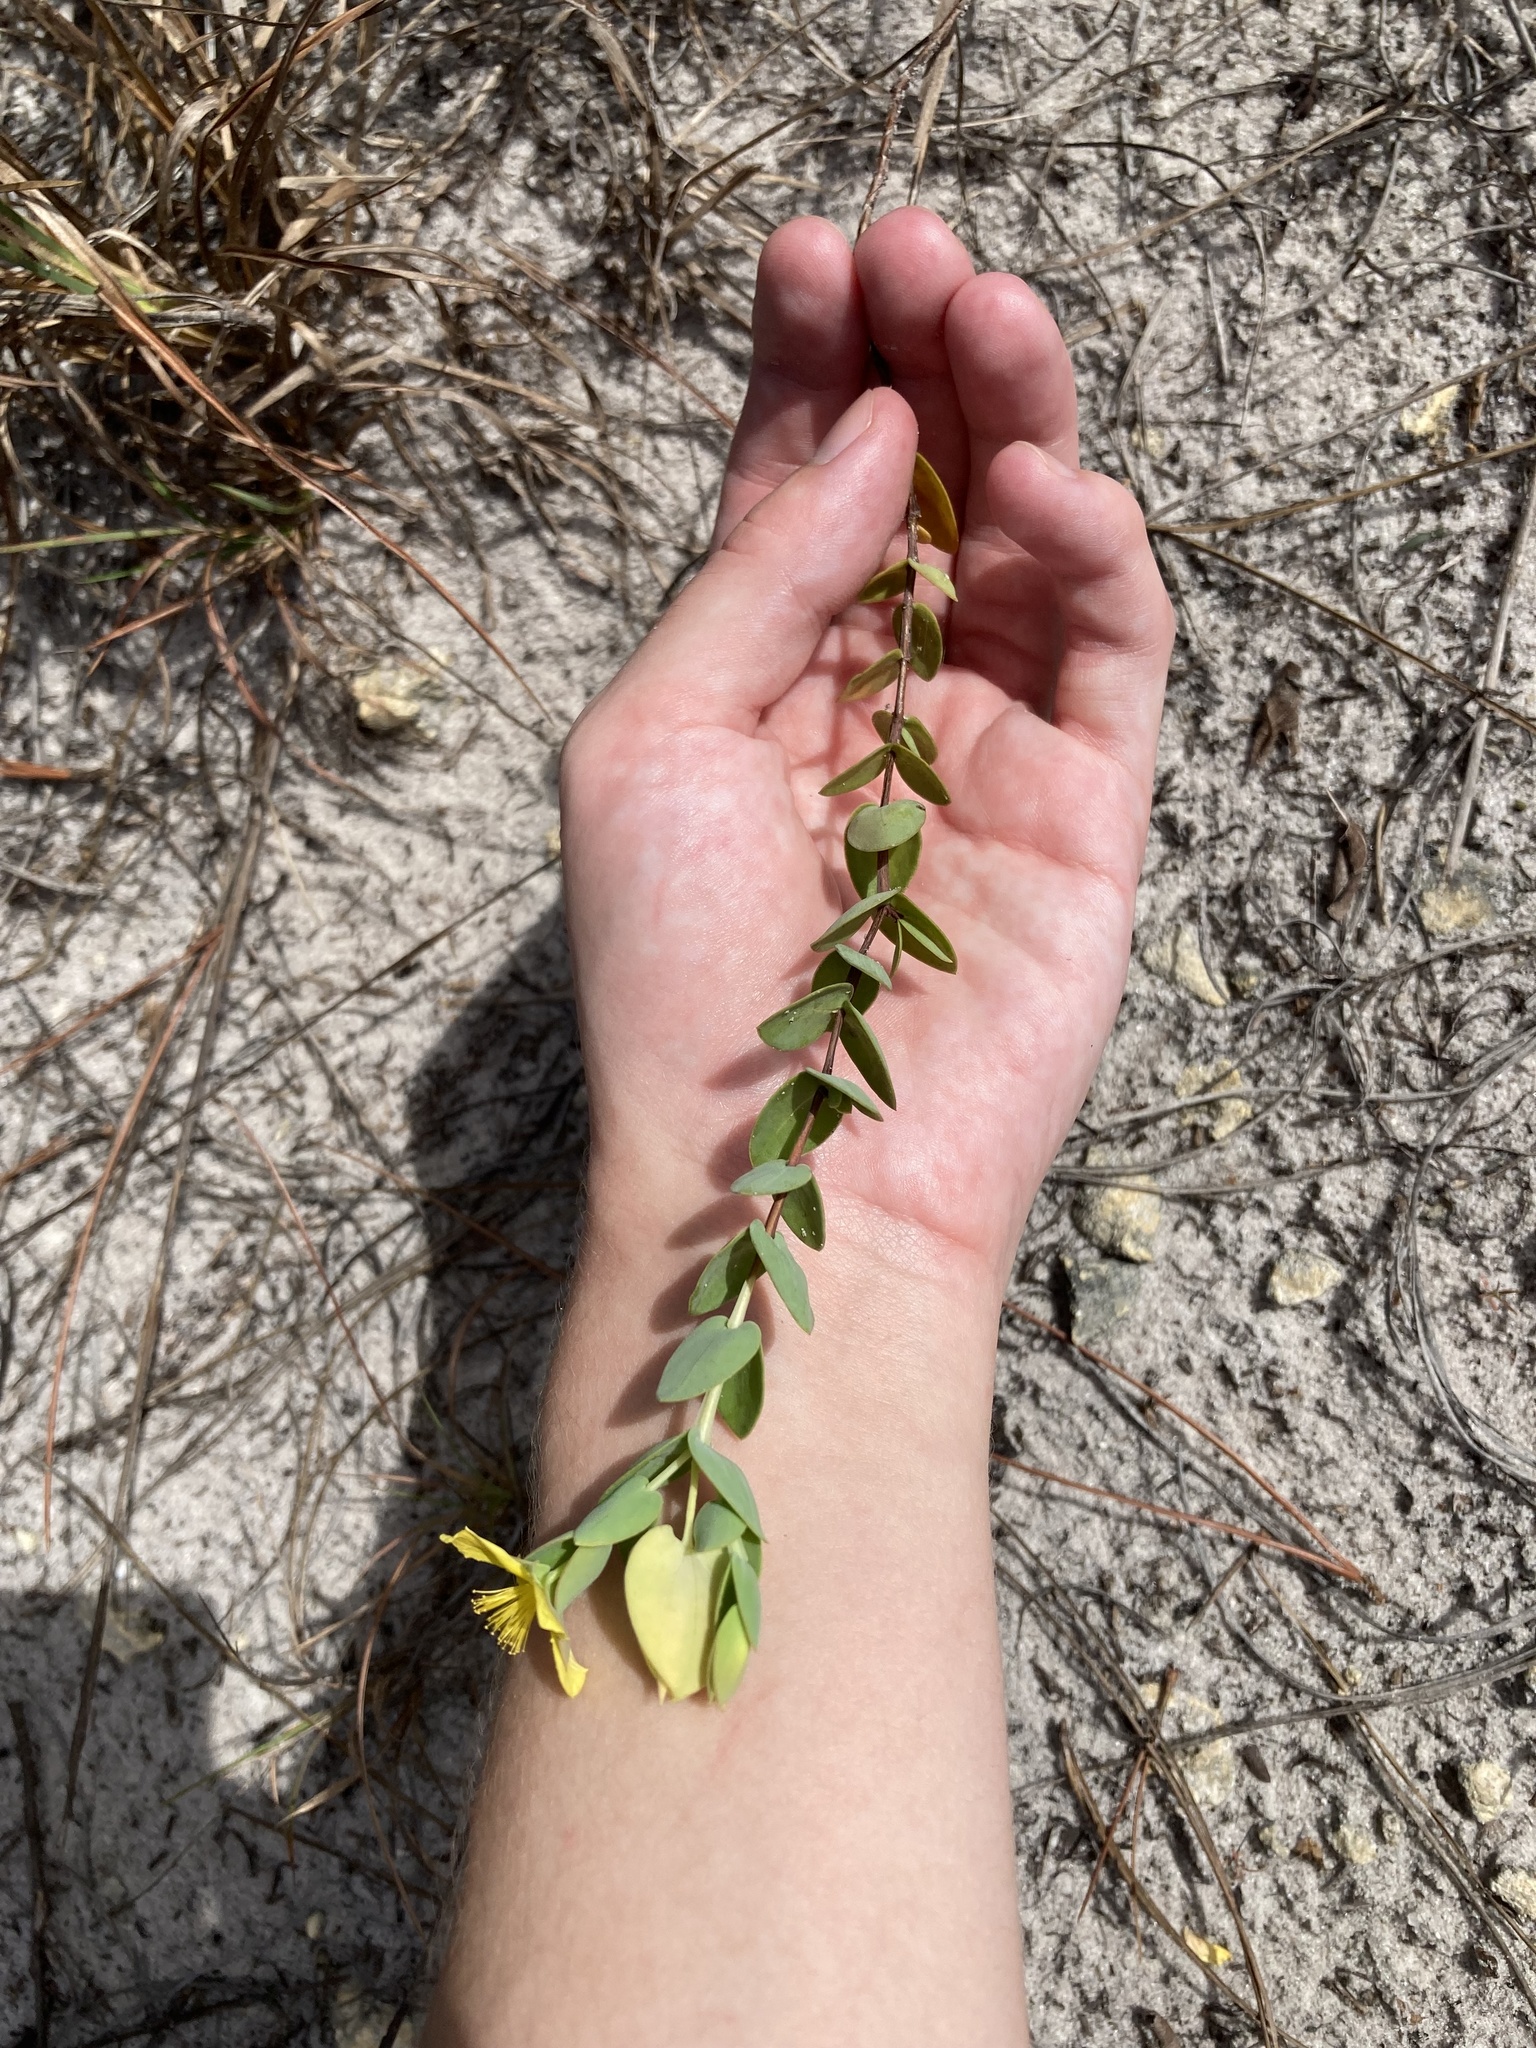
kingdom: Plantae
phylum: Tracheophyta
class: Magnoliopsida
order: Malpighiales
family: Hypericaceae
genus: Hypericum
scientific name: Hypericum tetrapetalum
